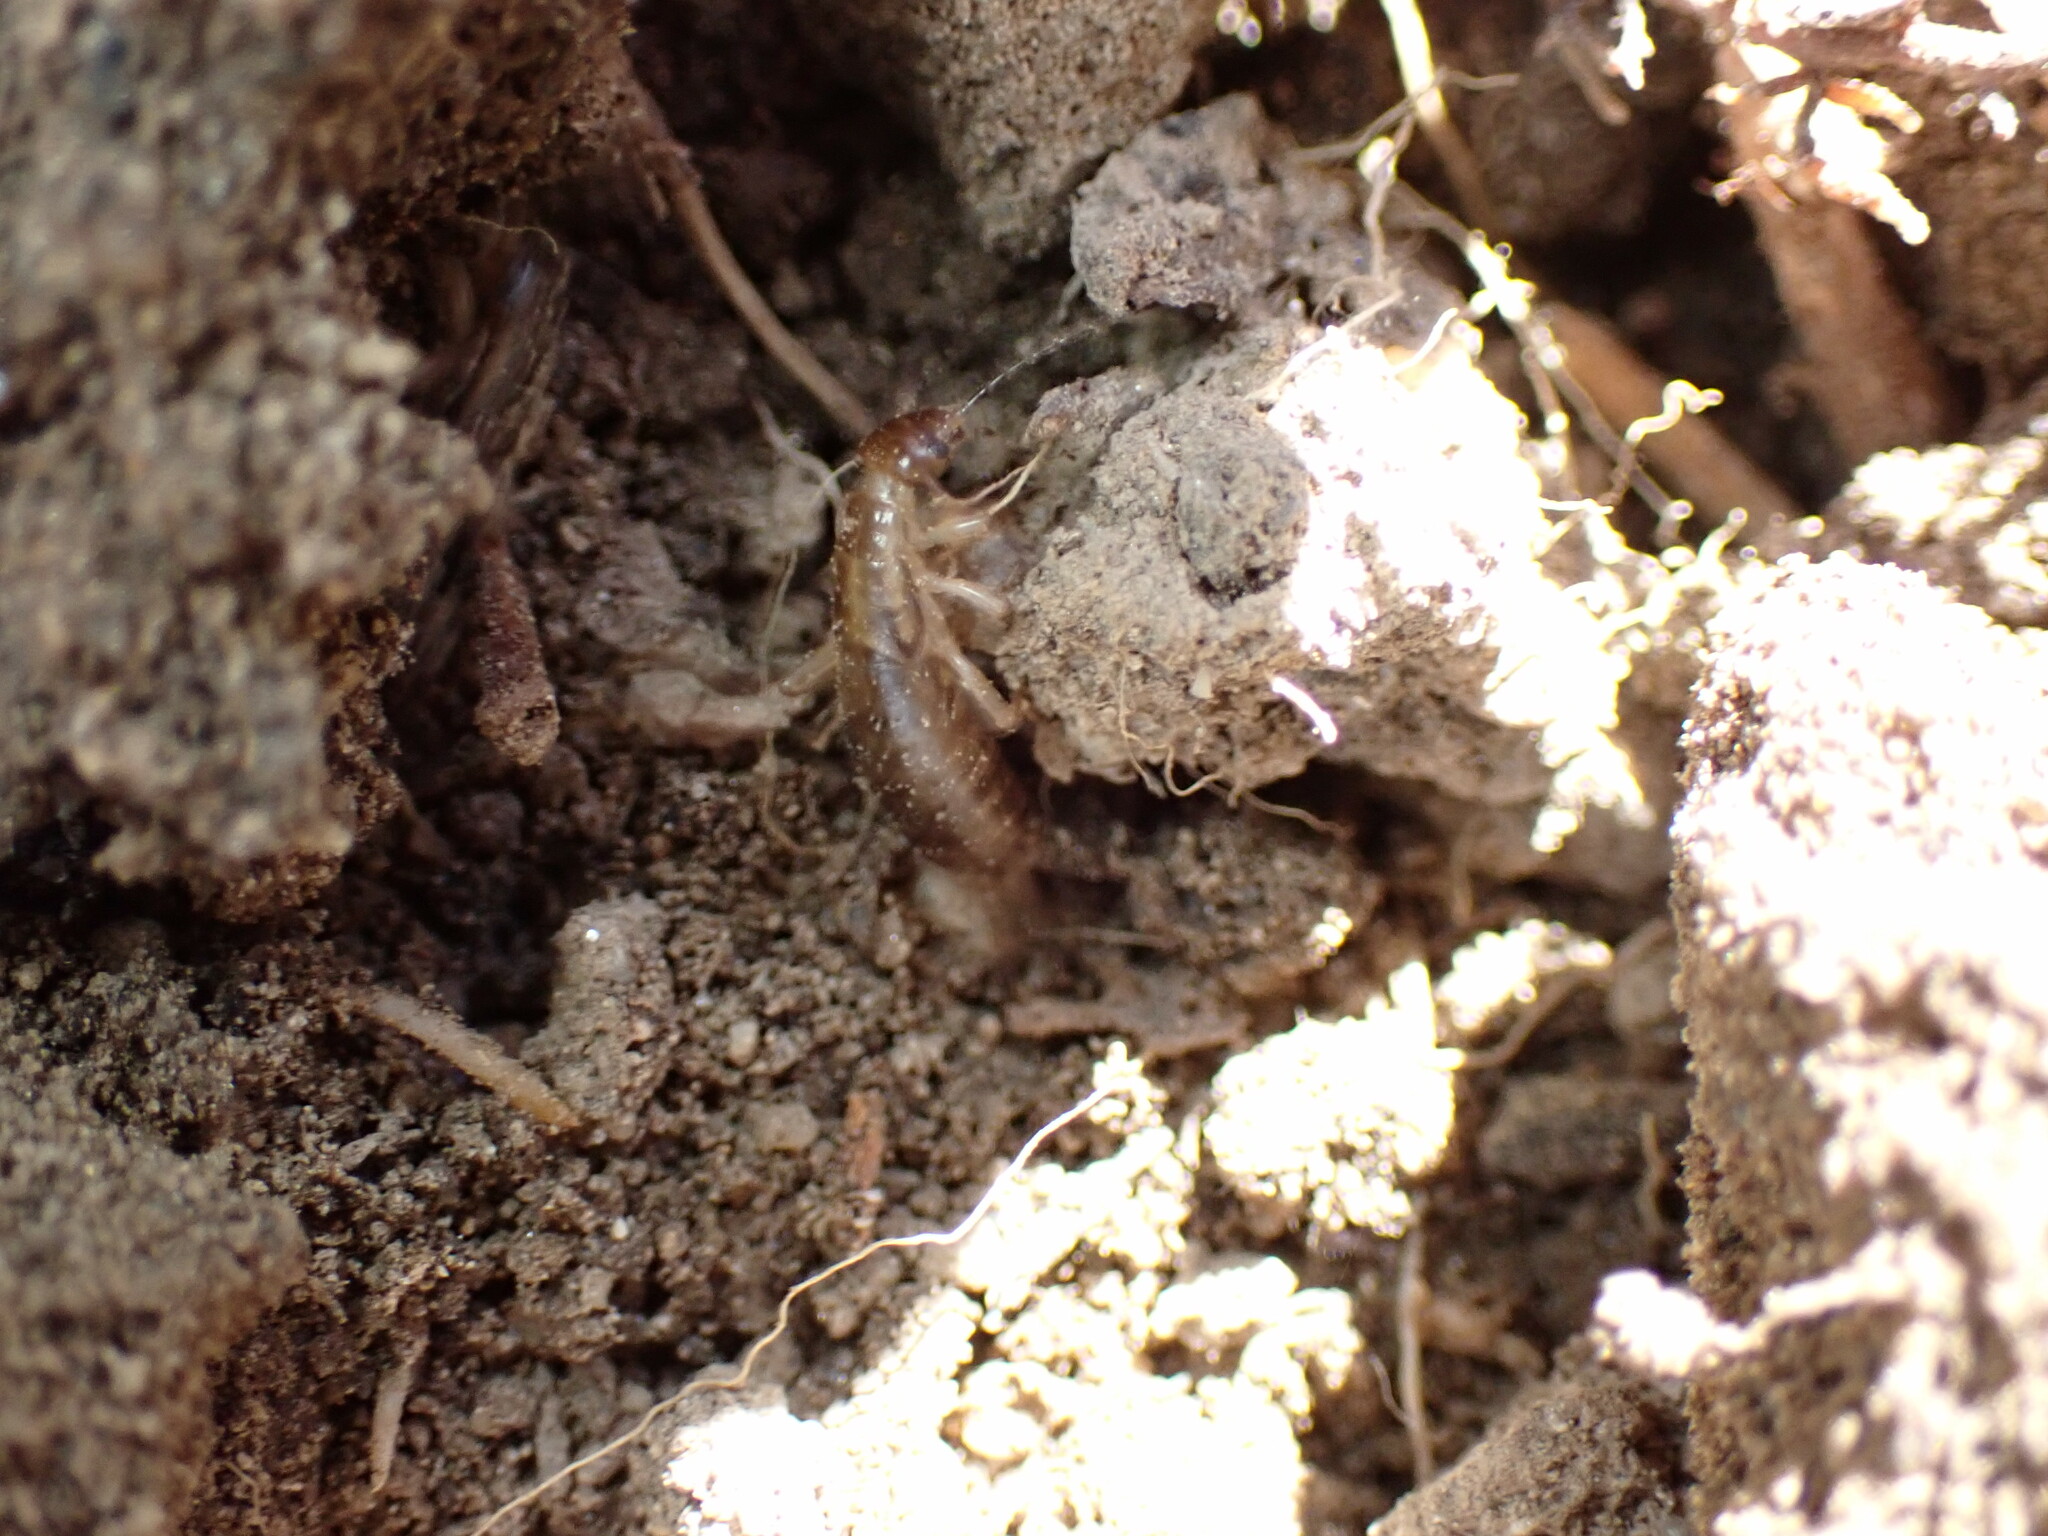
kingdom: Animalia
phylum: Arthropoda
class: Insecta
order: Dermaptera
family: Forficulidae
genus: Forficula
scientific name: Forficula auricularia
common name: European earwig
